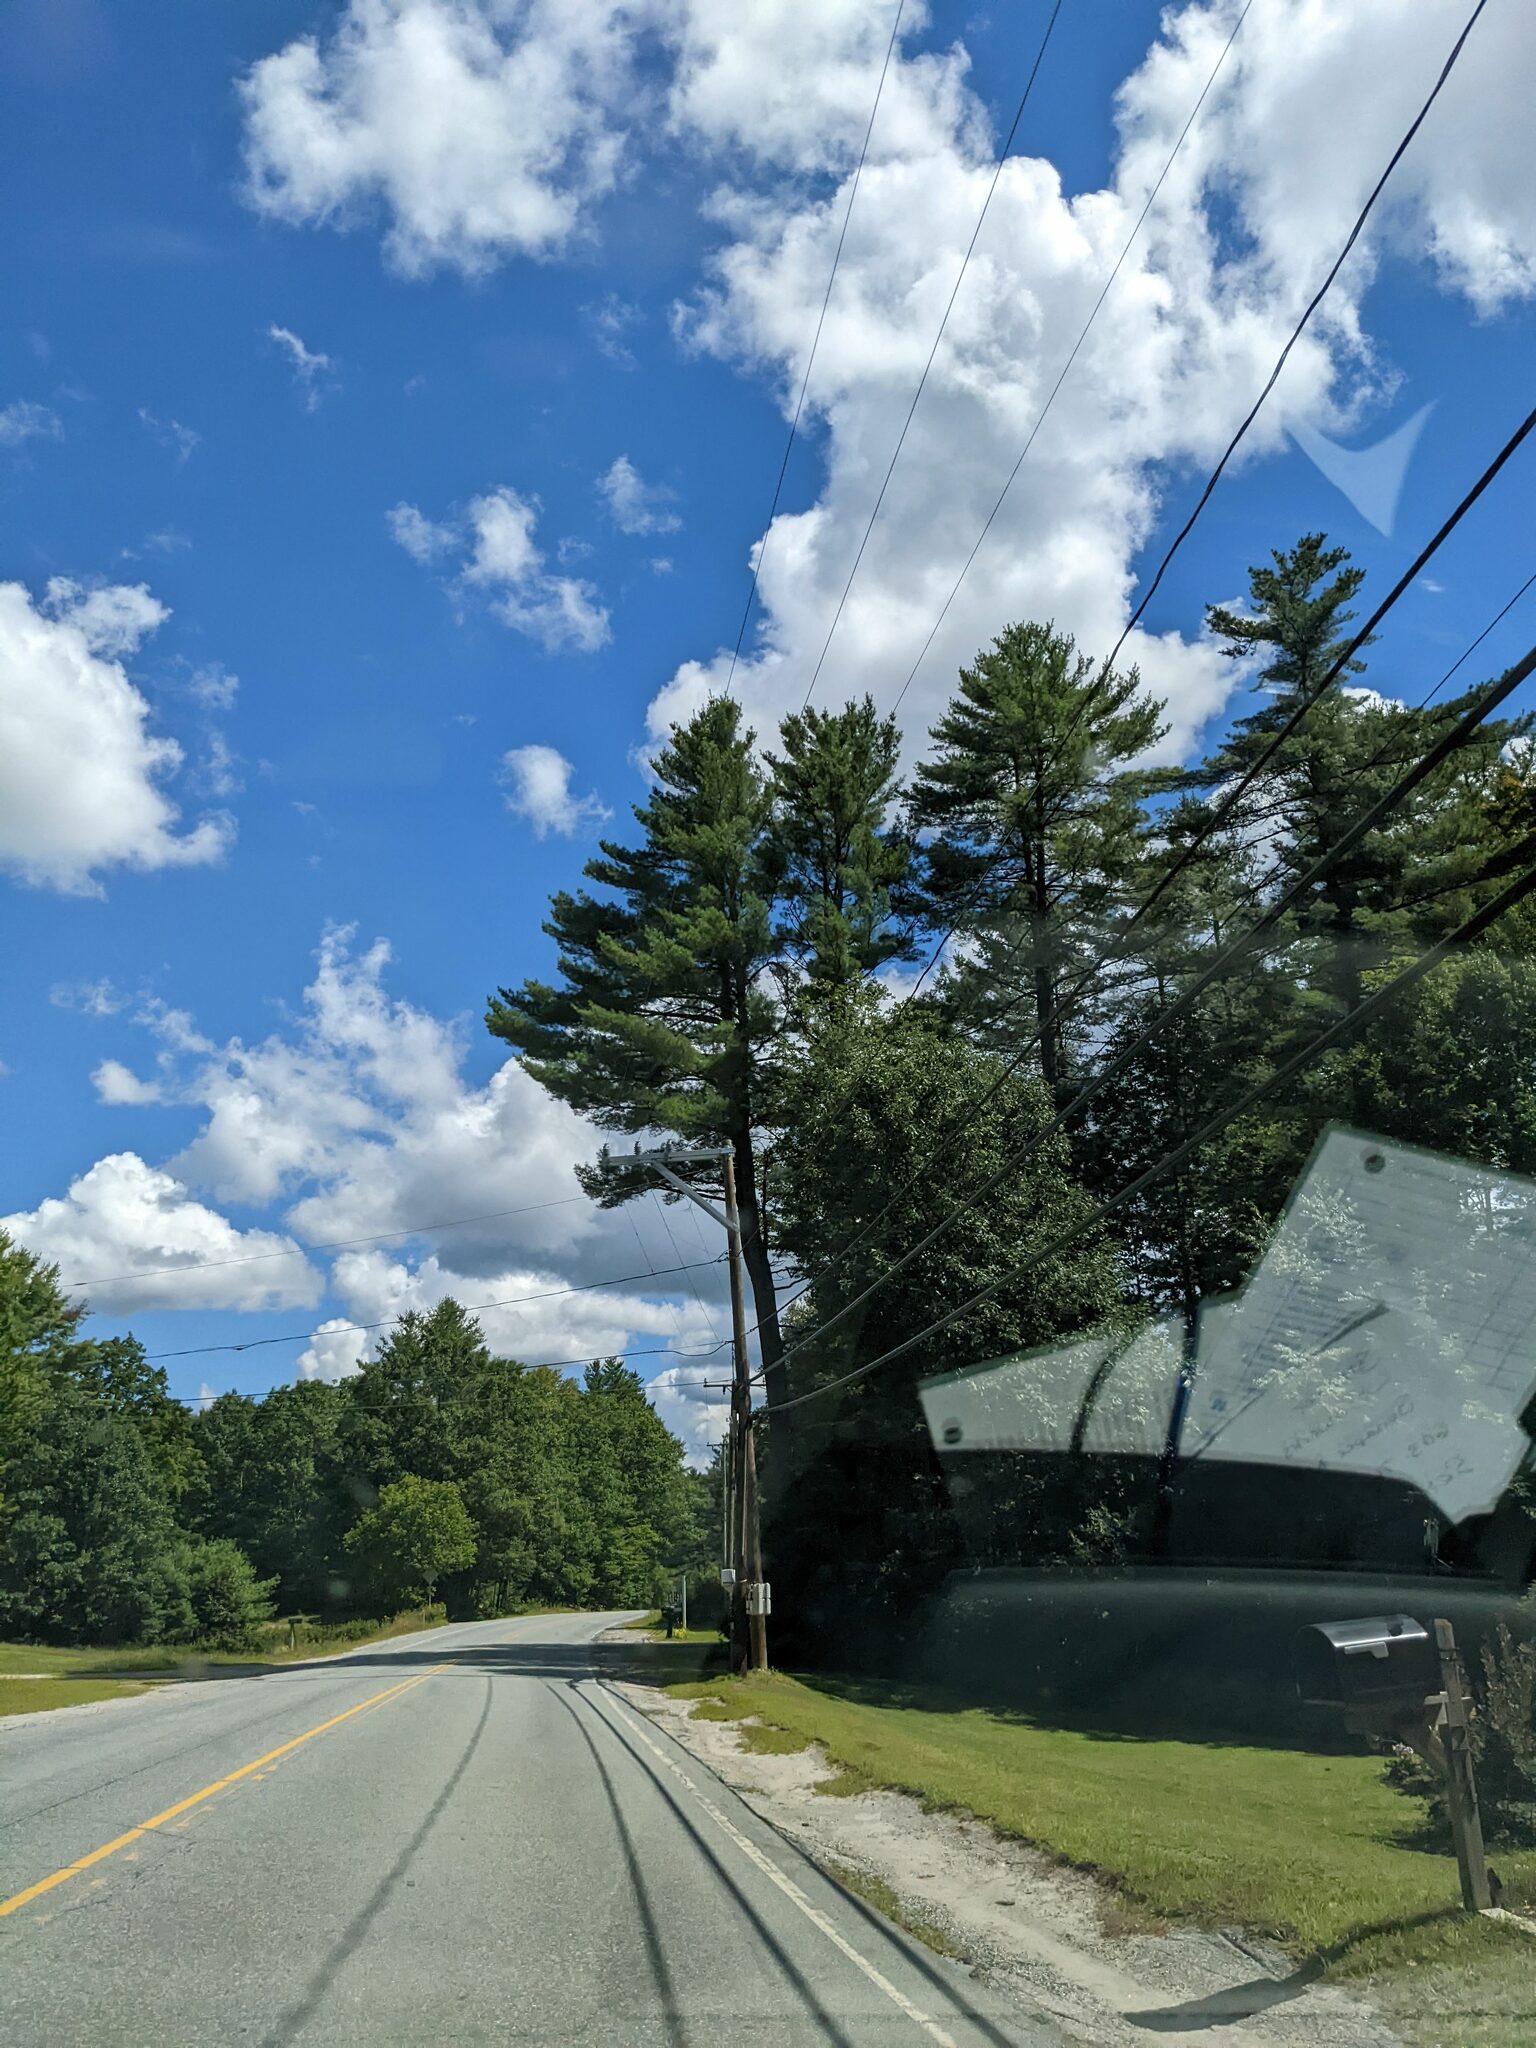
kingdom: Plantae
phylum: Tracheophyta
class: Pinopsida
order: Pinales
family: Pinaceae
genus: Pinus
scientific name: Pinus strobus
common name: Weymouth pine
